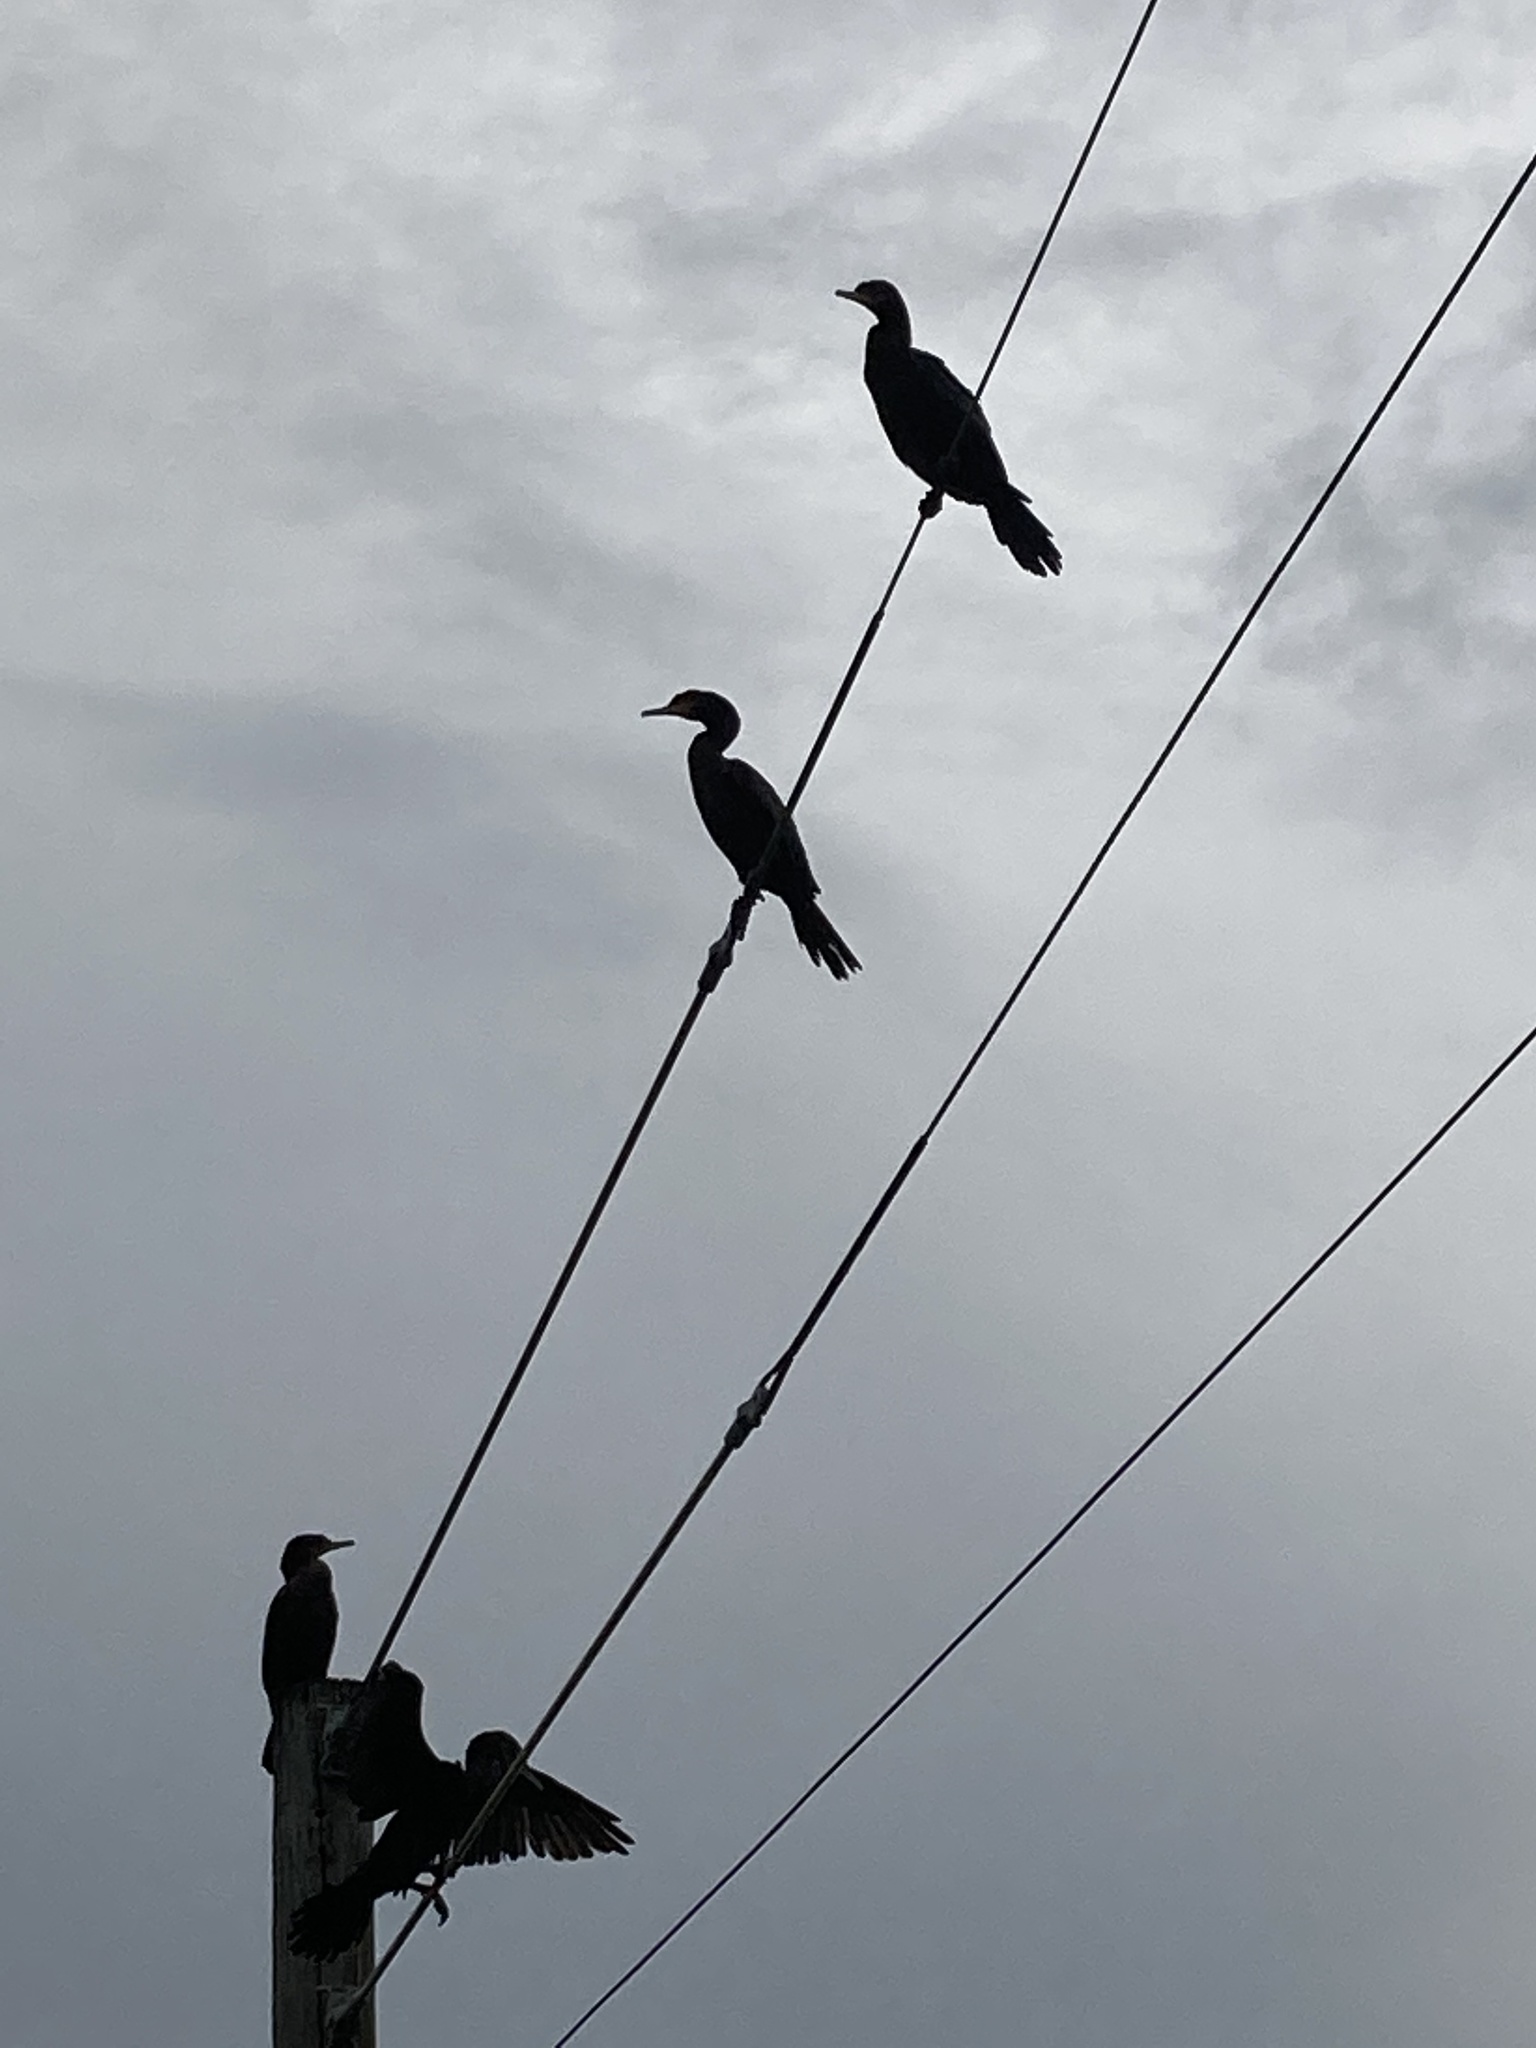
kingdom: Animalia
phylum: Chordata
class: Aves
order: Suliformes
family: Phalacrocoracidae
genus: Phalacrocorax
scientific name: Phalacrocorax brasilianus
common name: Neotropic cormorant
